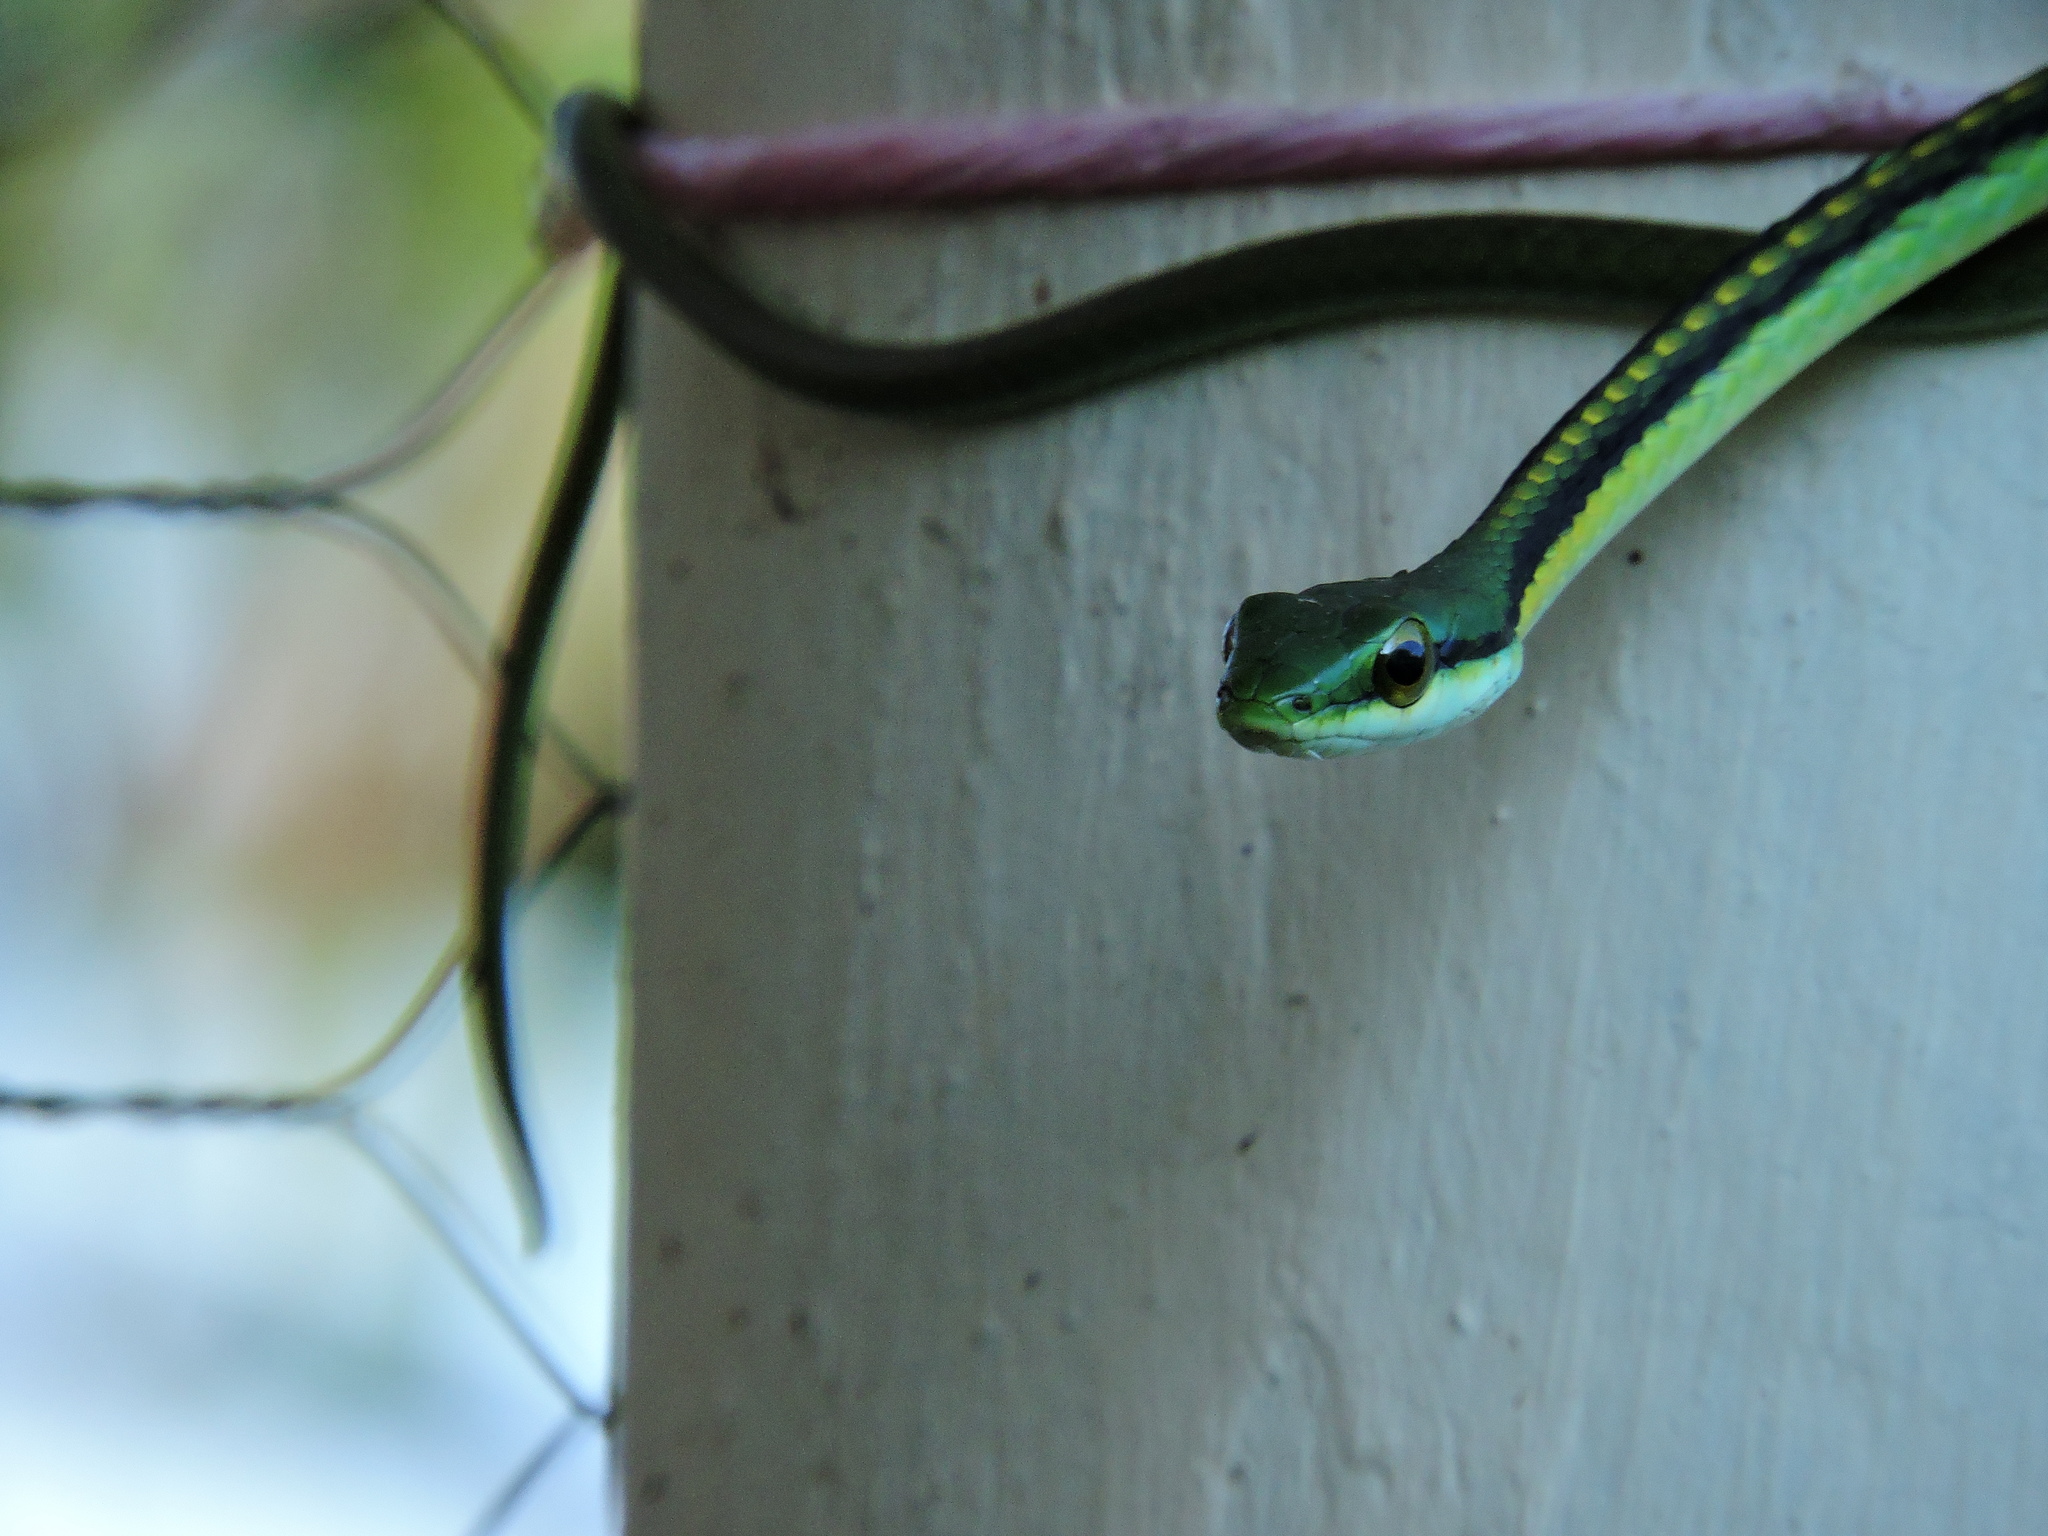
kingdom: Animalia
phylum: Chordata
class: Squamata
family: Colubridae
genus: Leptophis
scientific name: Leptophis diplotropis
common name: Pacific coast parrot snake
